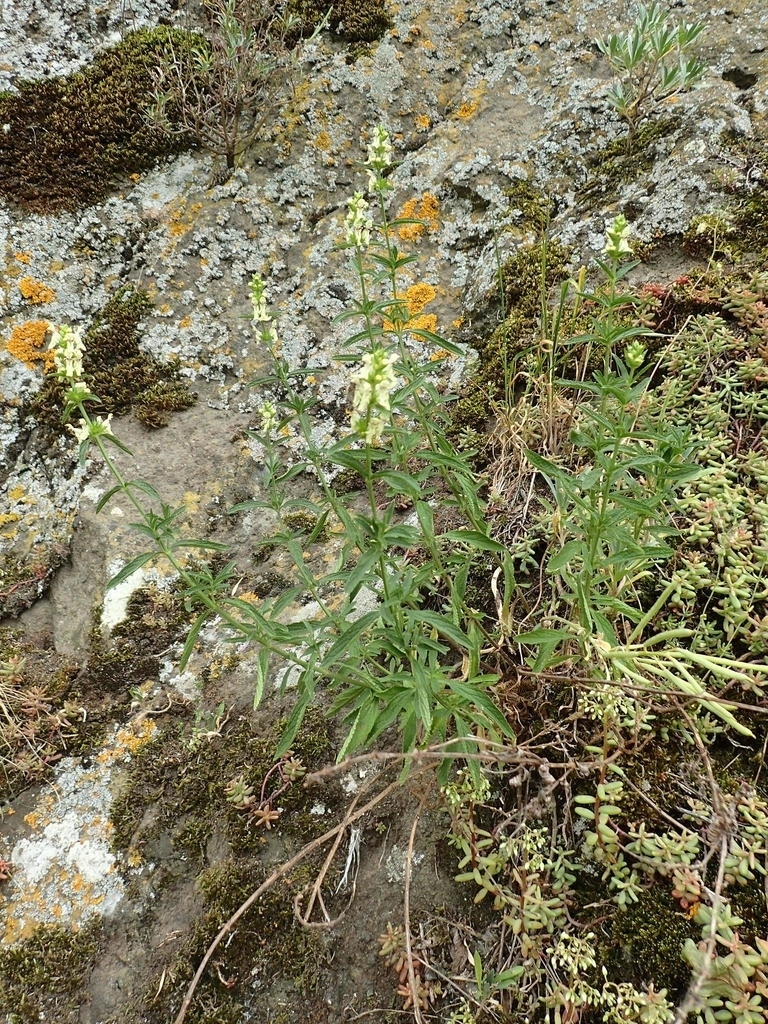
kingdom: Plantae
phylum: Tracheophyta
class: Magnoliopsida
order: Lamiales
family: Lamiaceae
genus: Stachys
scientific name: Stachys recta
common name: Perennial yellow-woundwort
